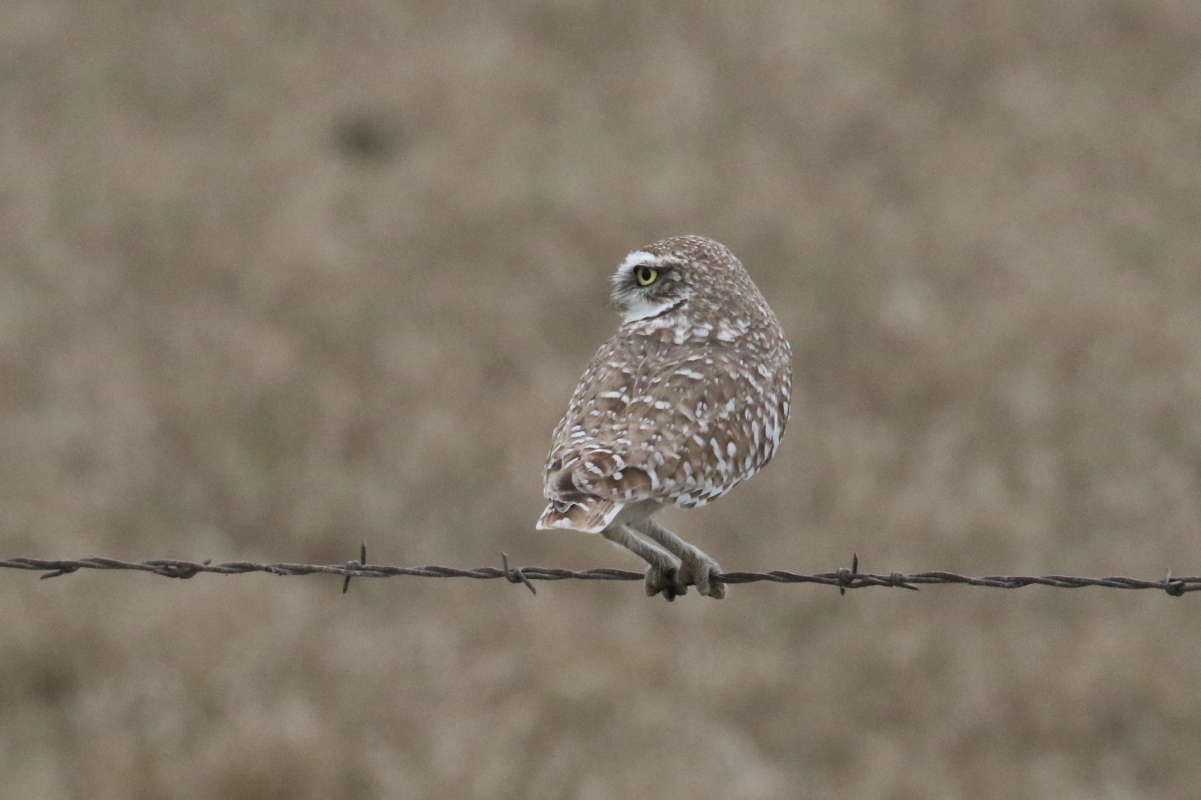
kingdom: Animalia
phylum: Chordata
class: Aves
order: Strigiformes
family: Strigidae
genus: Athene
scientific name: Athene cunicularia
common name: Burrowing owl
